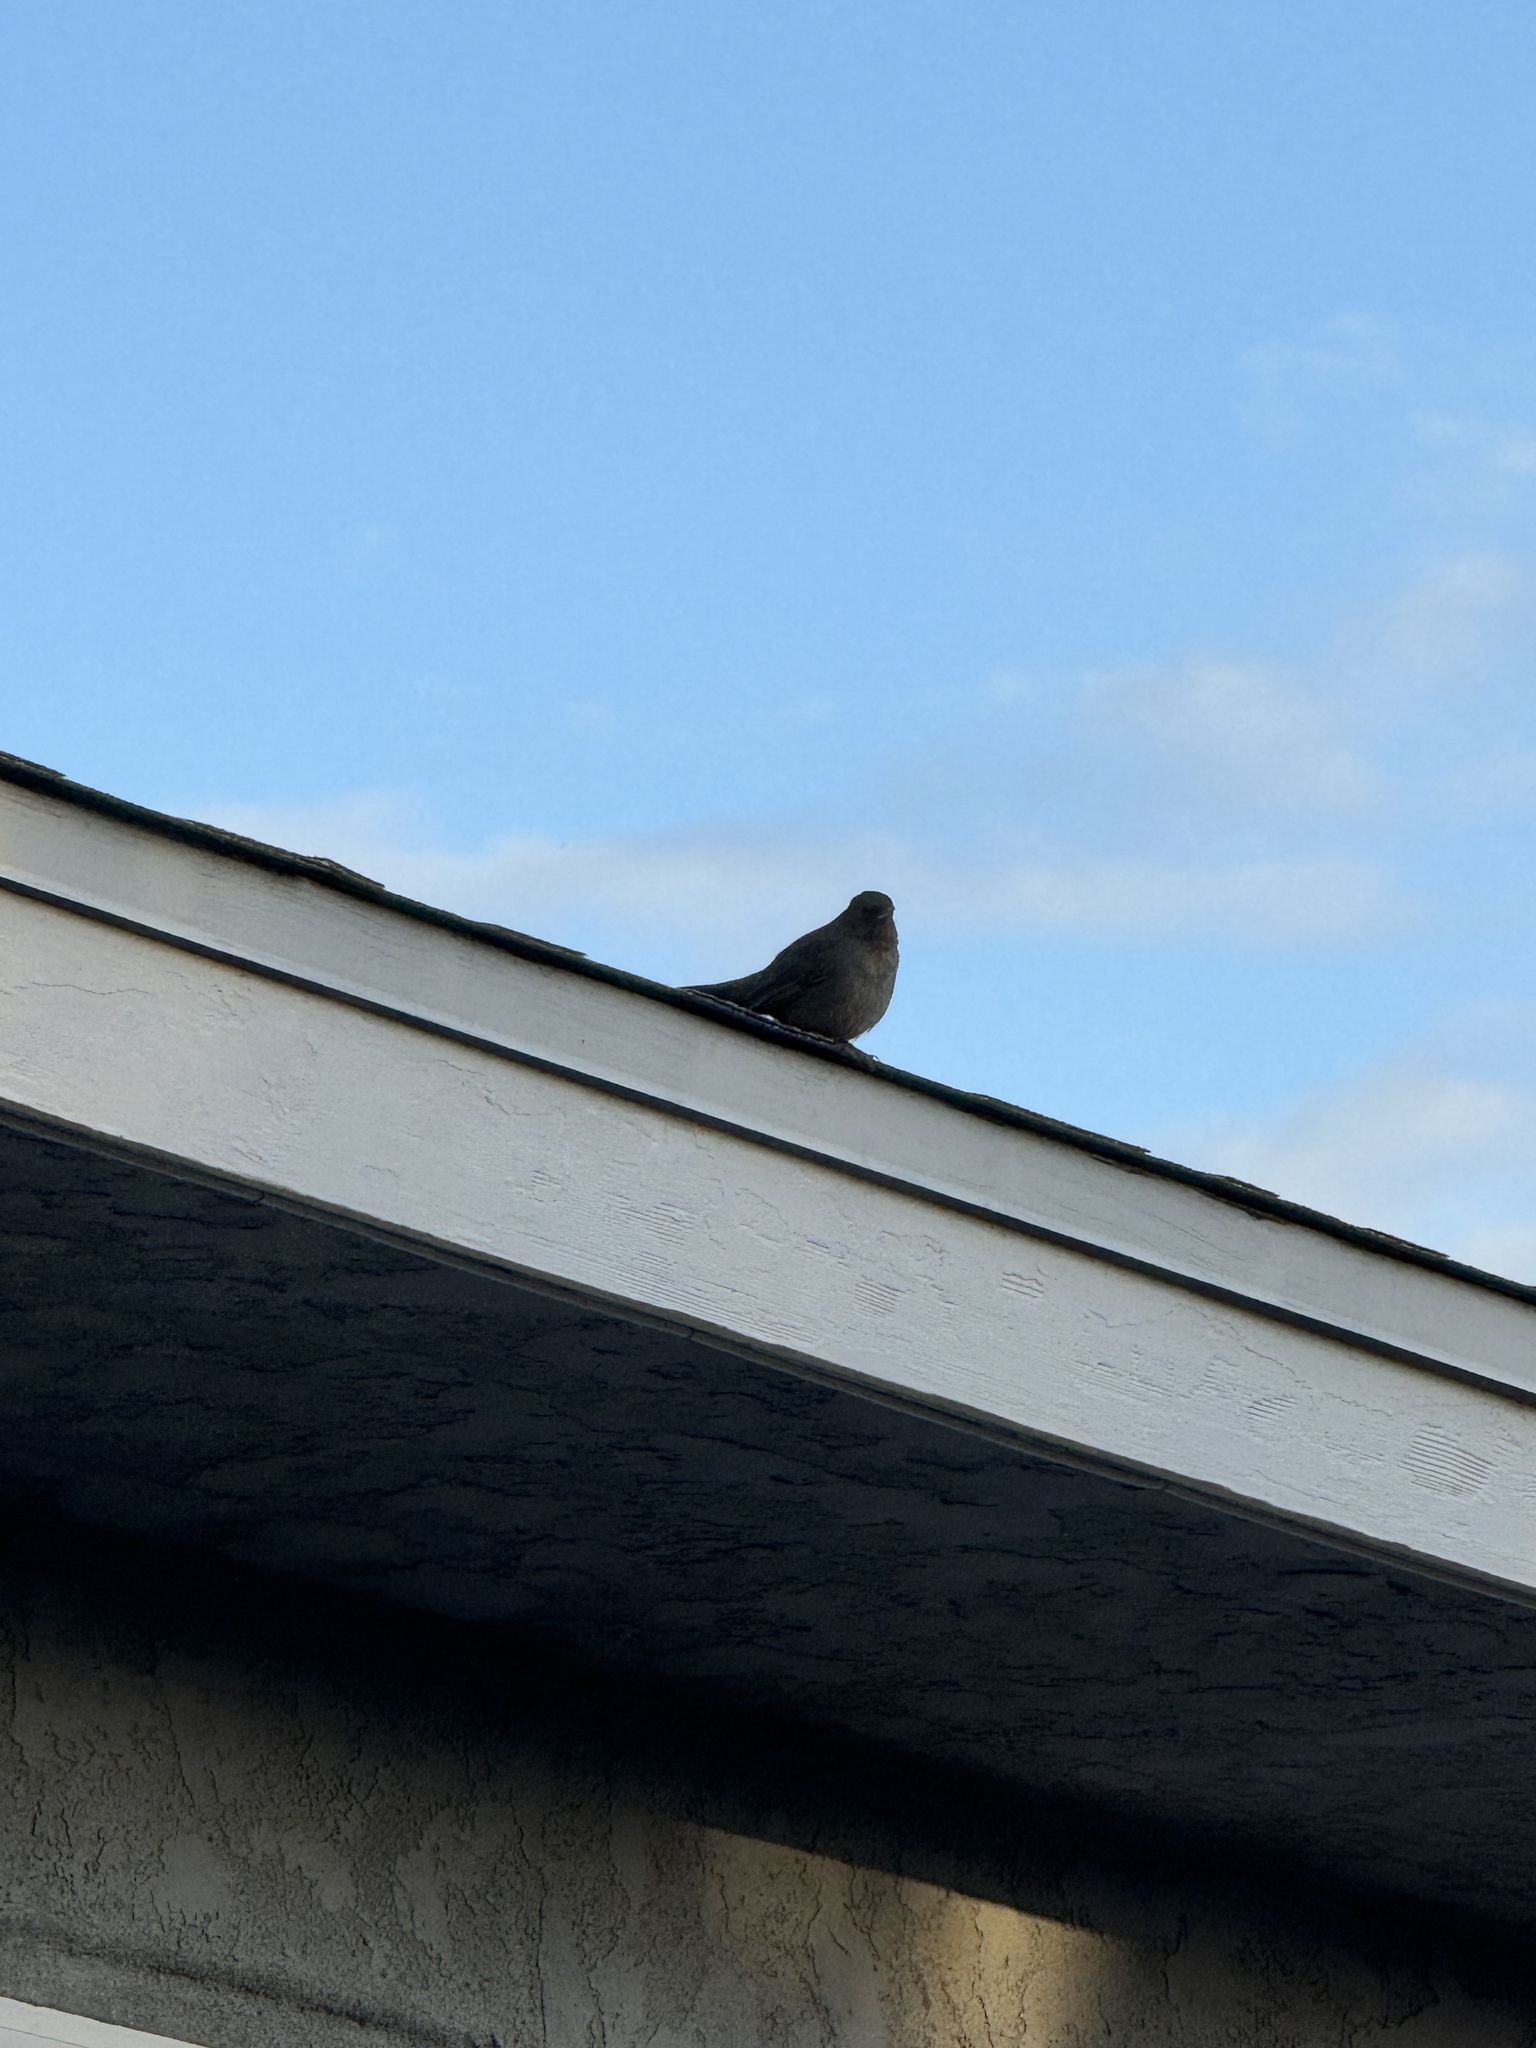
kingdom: Animalia
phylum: Chordata
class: Aves
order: Passeriformes
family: Passerellidae
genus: Melozone
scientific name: Melozone crissalis
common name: California towhee
